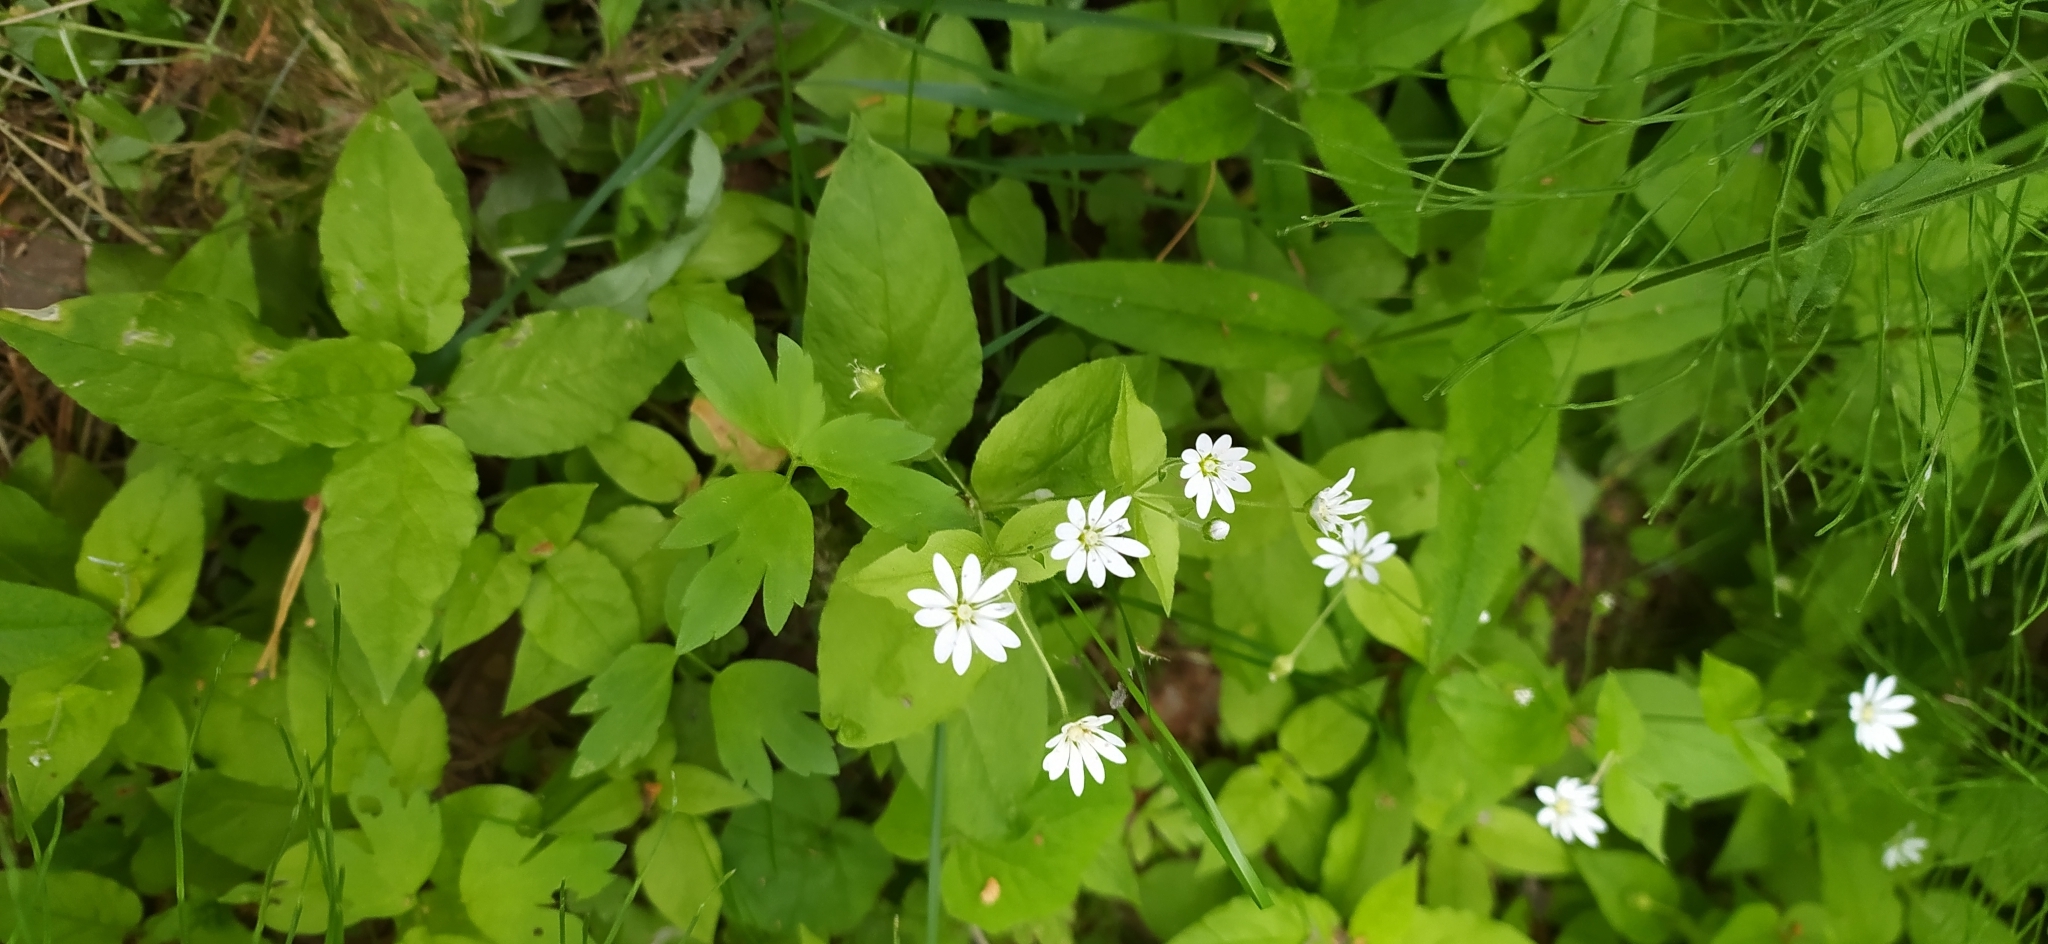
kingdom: Plantae
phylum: Tracheophyta
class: Magnoliopsida
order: Caryophyllales
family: Caryophyllaceae
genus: Stellaria
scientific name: Stellaria bungeana
